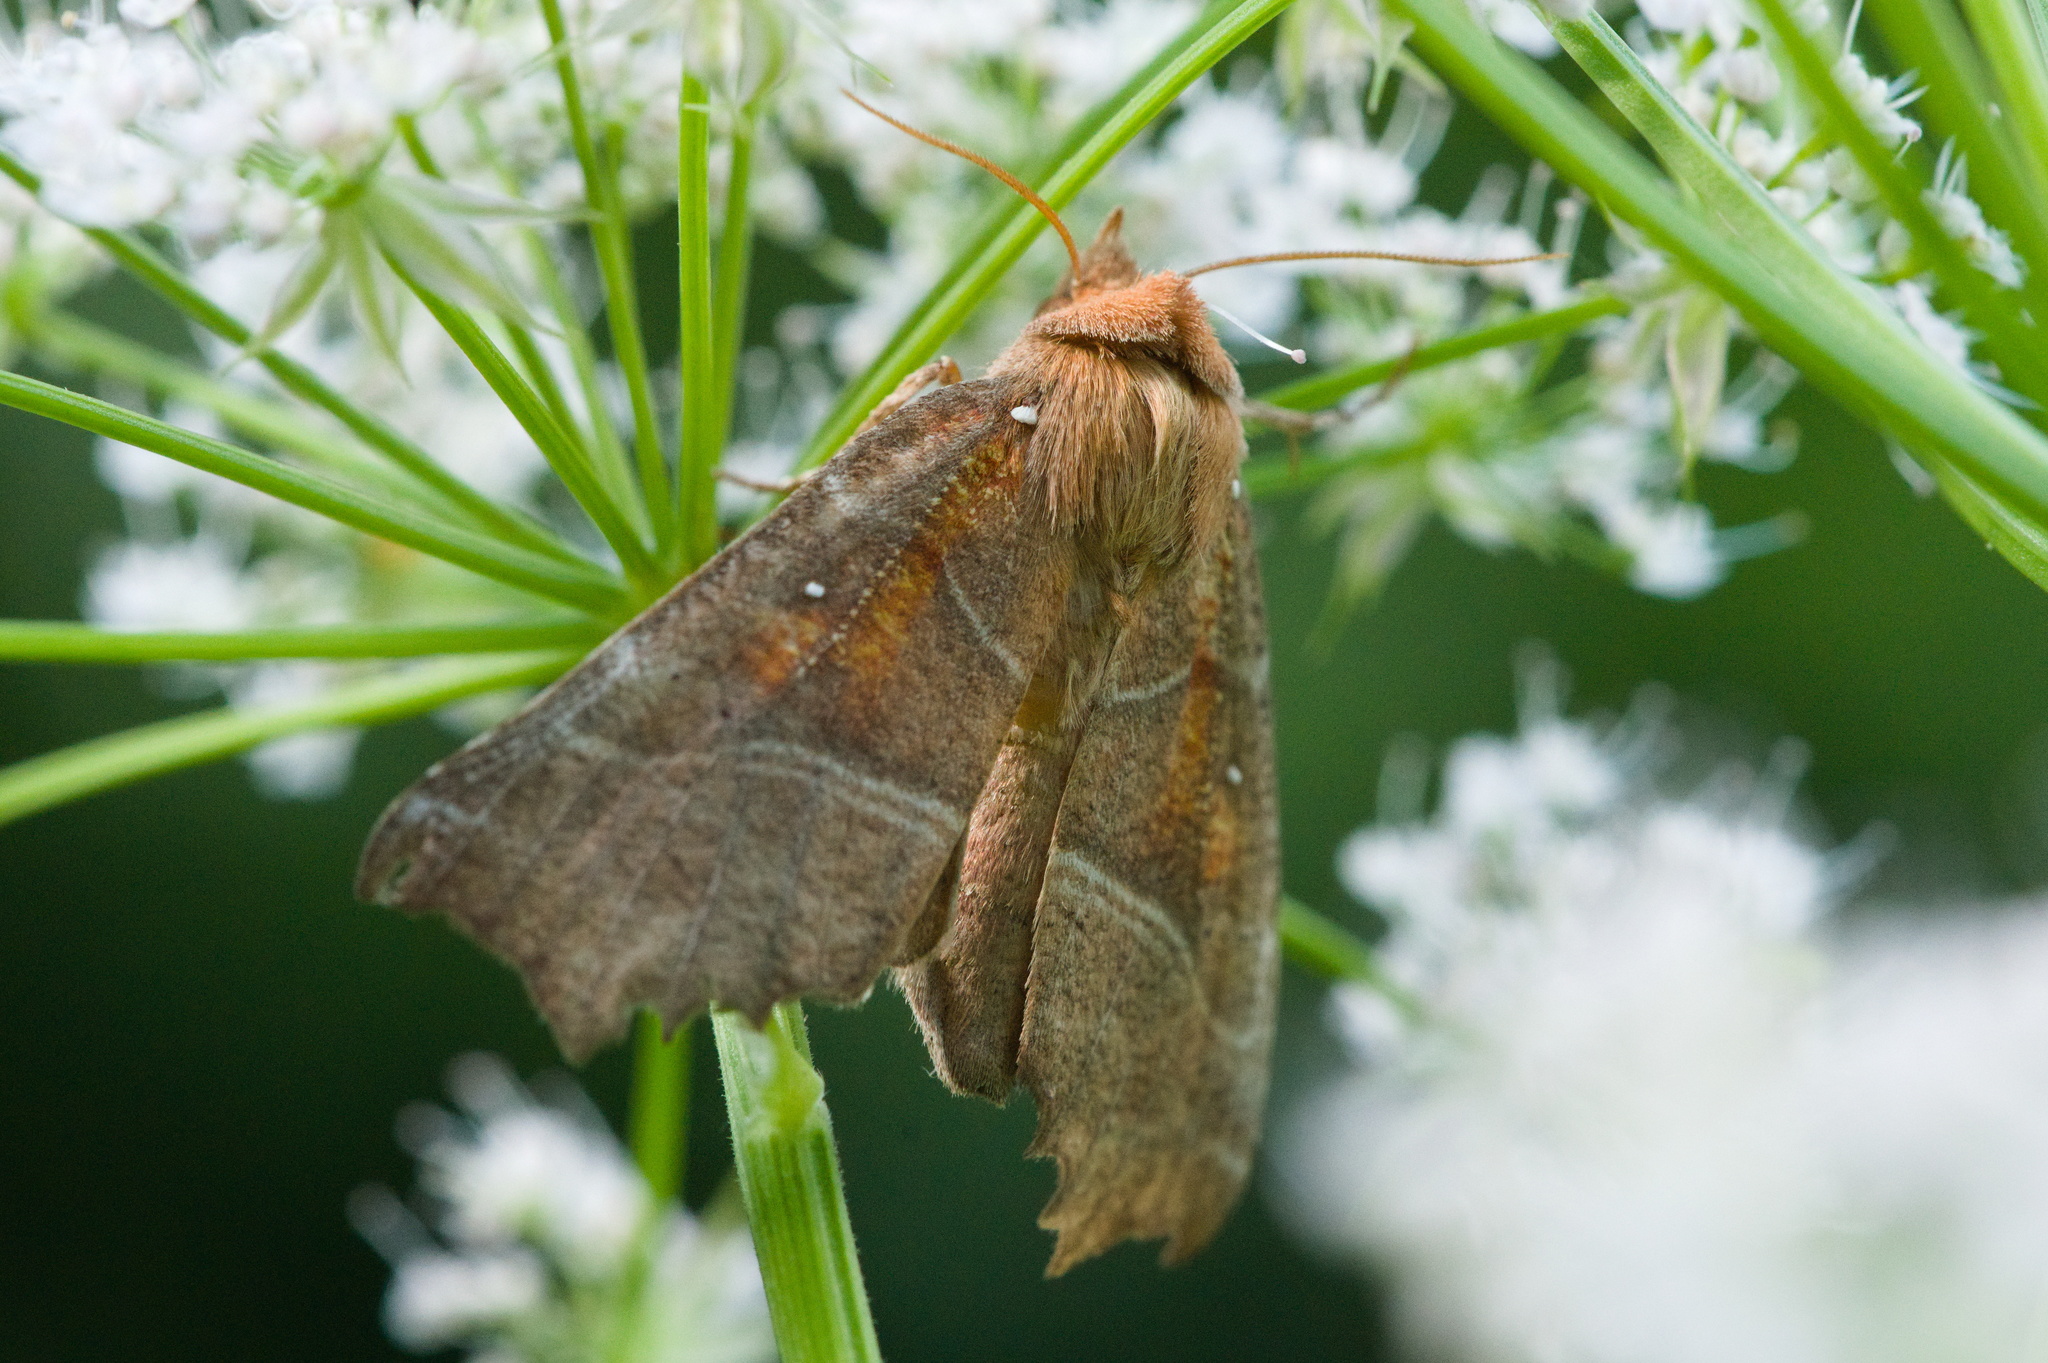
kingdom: Animalia
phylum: Arthropoda
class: Insecta
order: Lepidoptera
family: Erebidae
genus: Scoliopteryx
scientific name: Scoliopteryx libatrix
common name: Herald
